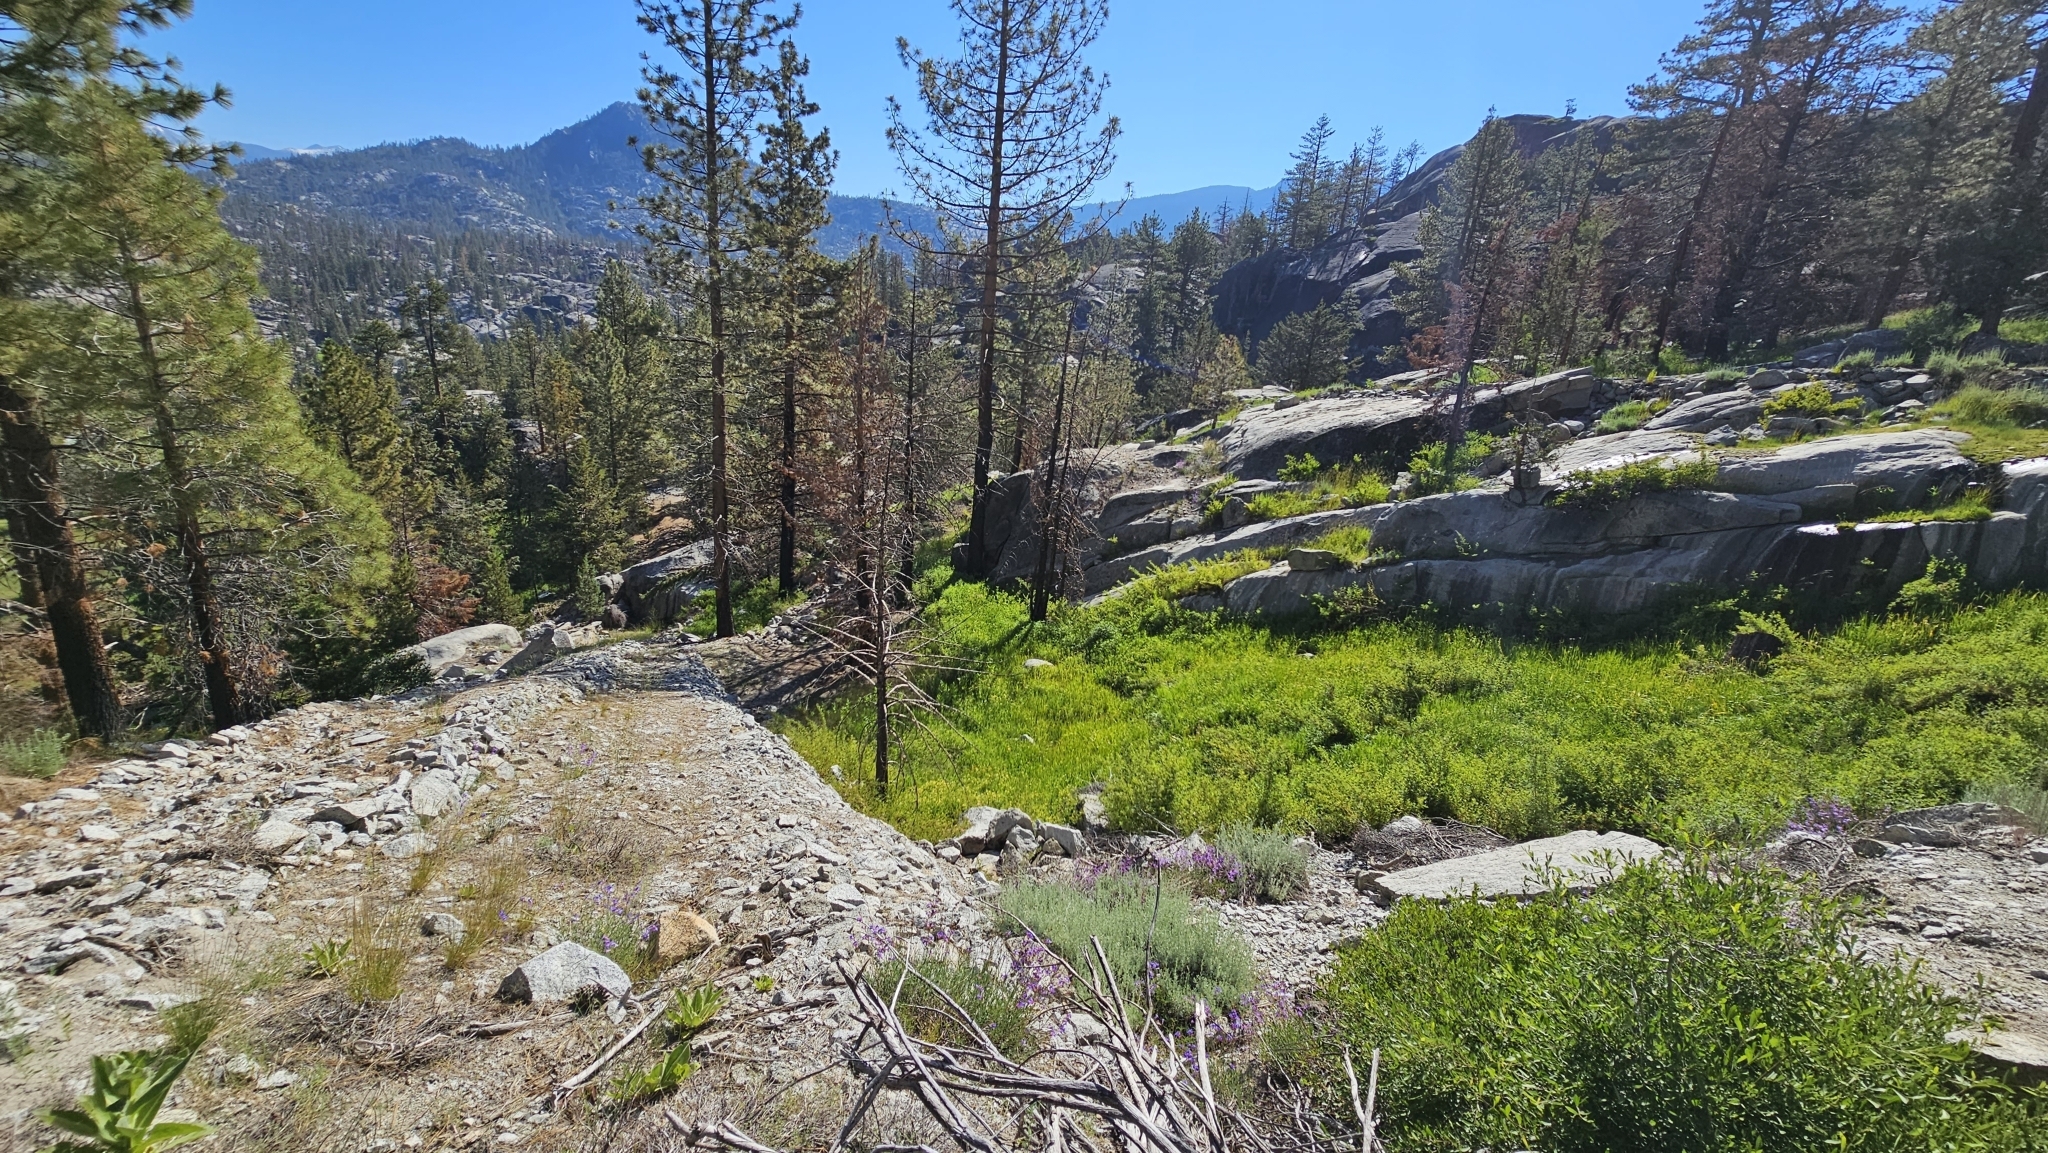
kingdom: Plantae
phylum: Tracheophyta
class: Magnoliopsida
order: Ericales
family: Polemoniaceae
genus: Collomia
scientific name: Collomia tinctoria
